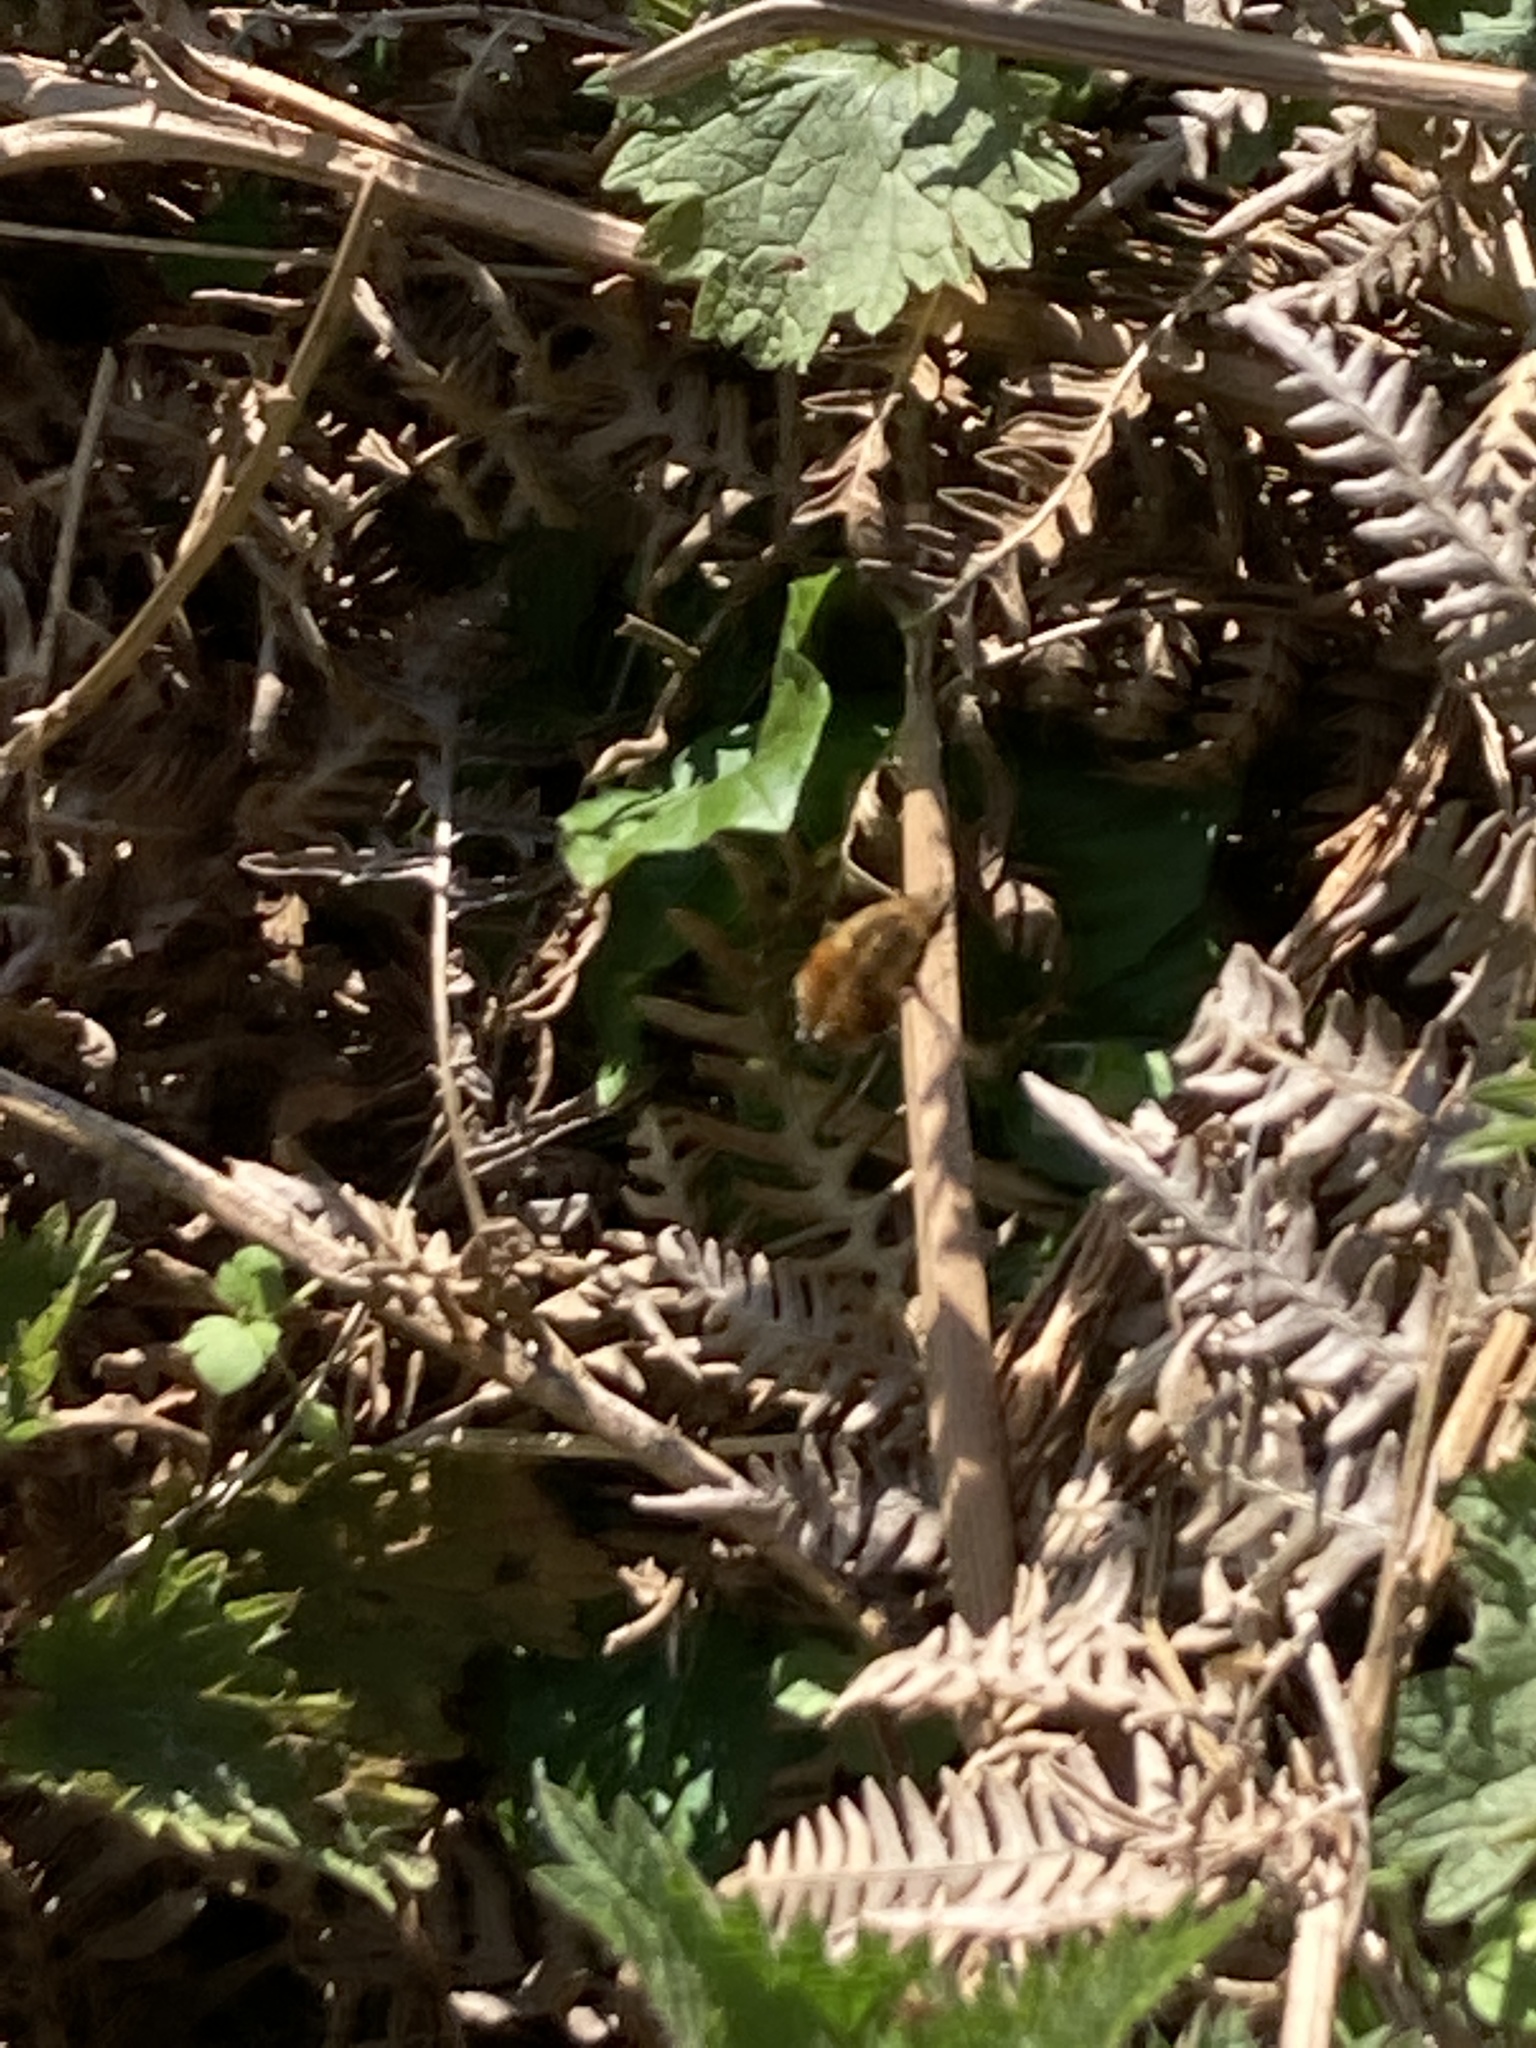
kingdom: Animalia
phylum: Arthropoda
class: Insecta
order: Diptera
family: Bombyliidae
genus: Bombylius
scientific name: Bombylius major
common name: Bee fly
